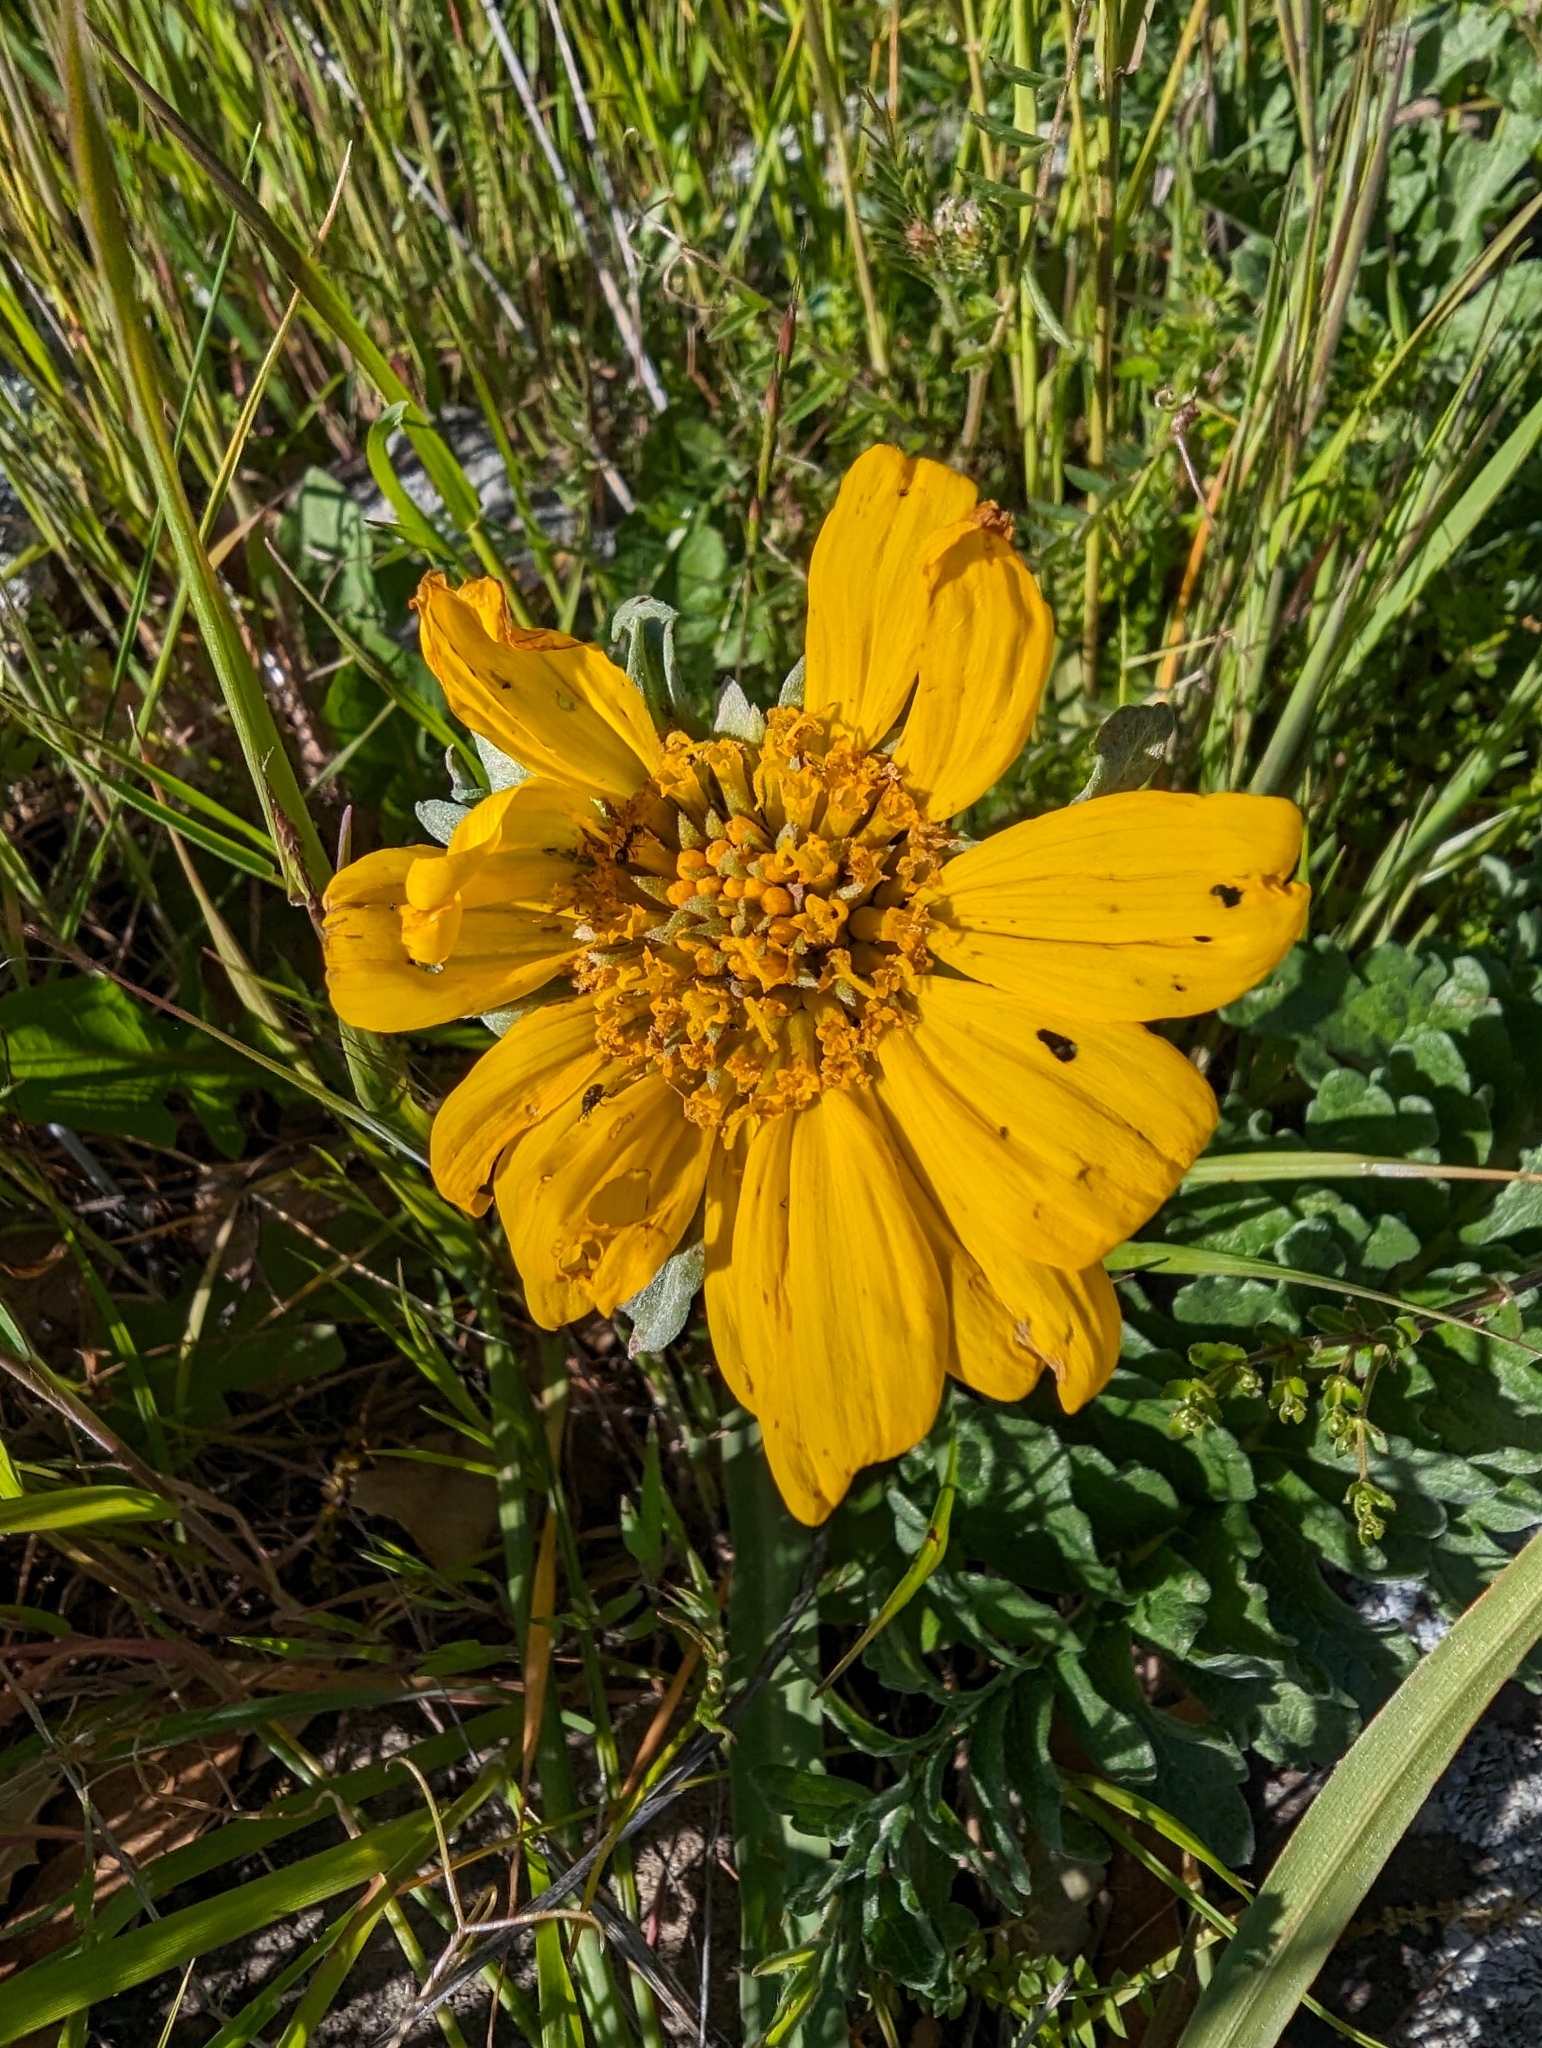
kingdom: Plantae
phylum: Tracheophyta
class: Magnoliopsida
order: Asterales
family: Asteraceae
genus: Balsamorhiza
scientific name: Balsamorhiza macrolepis
